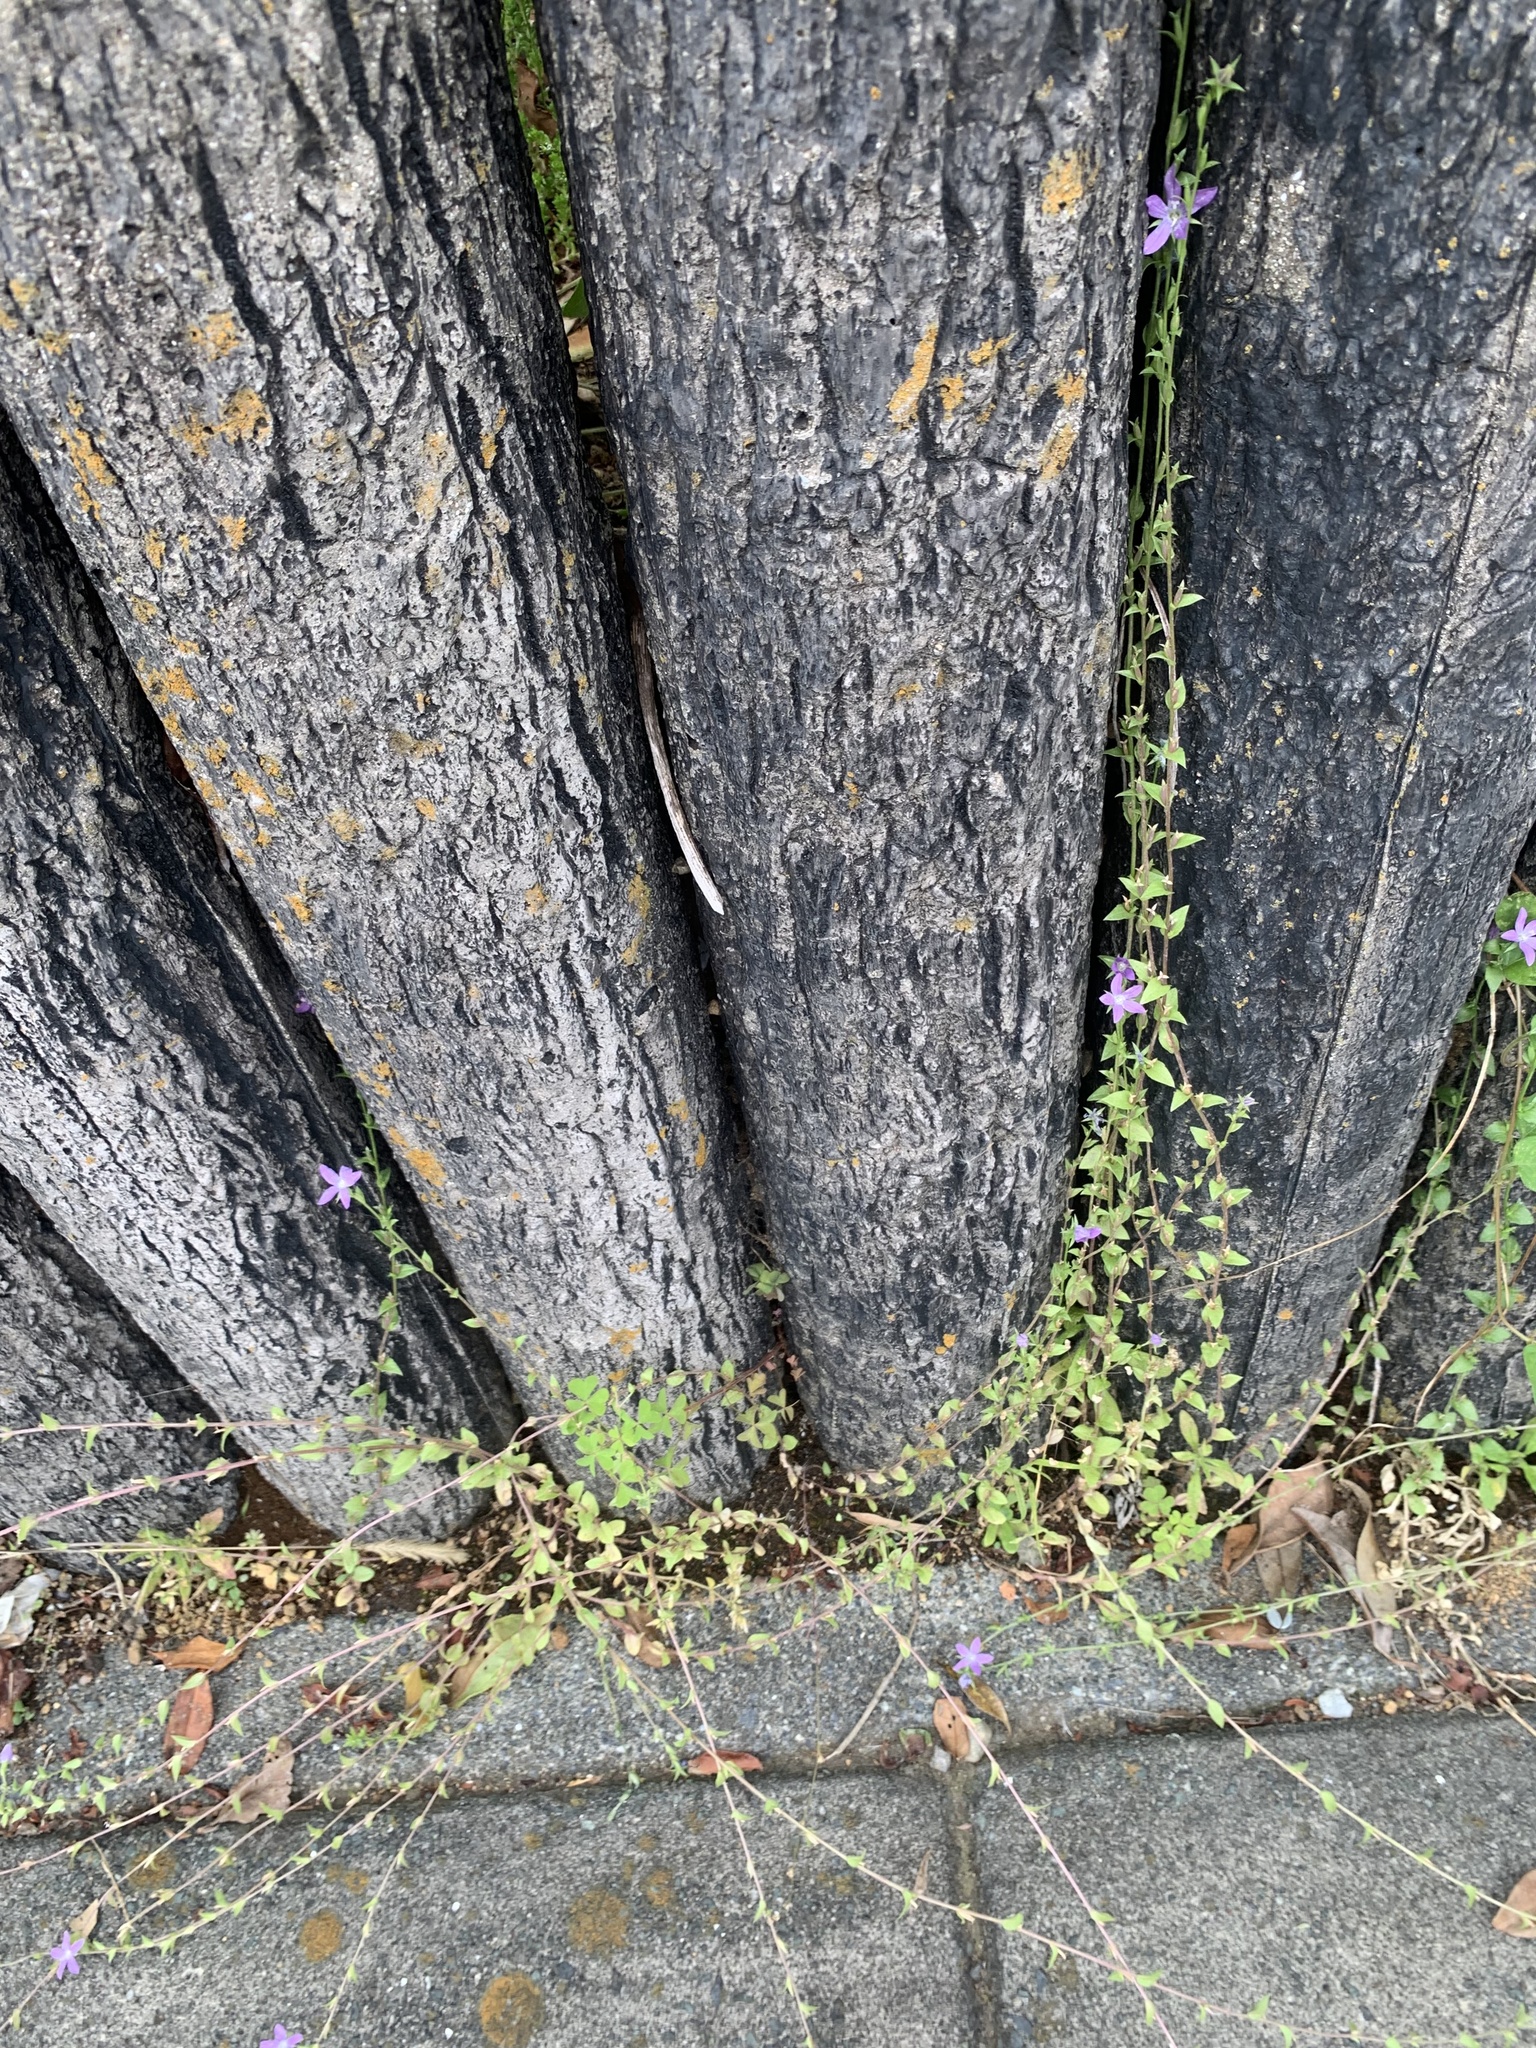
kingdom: Plantae
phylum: Tracheophyta
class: Magnoliopsida
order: Asterales
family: Campanulaceae
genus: Triodanis
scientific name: Triodanis biflora
